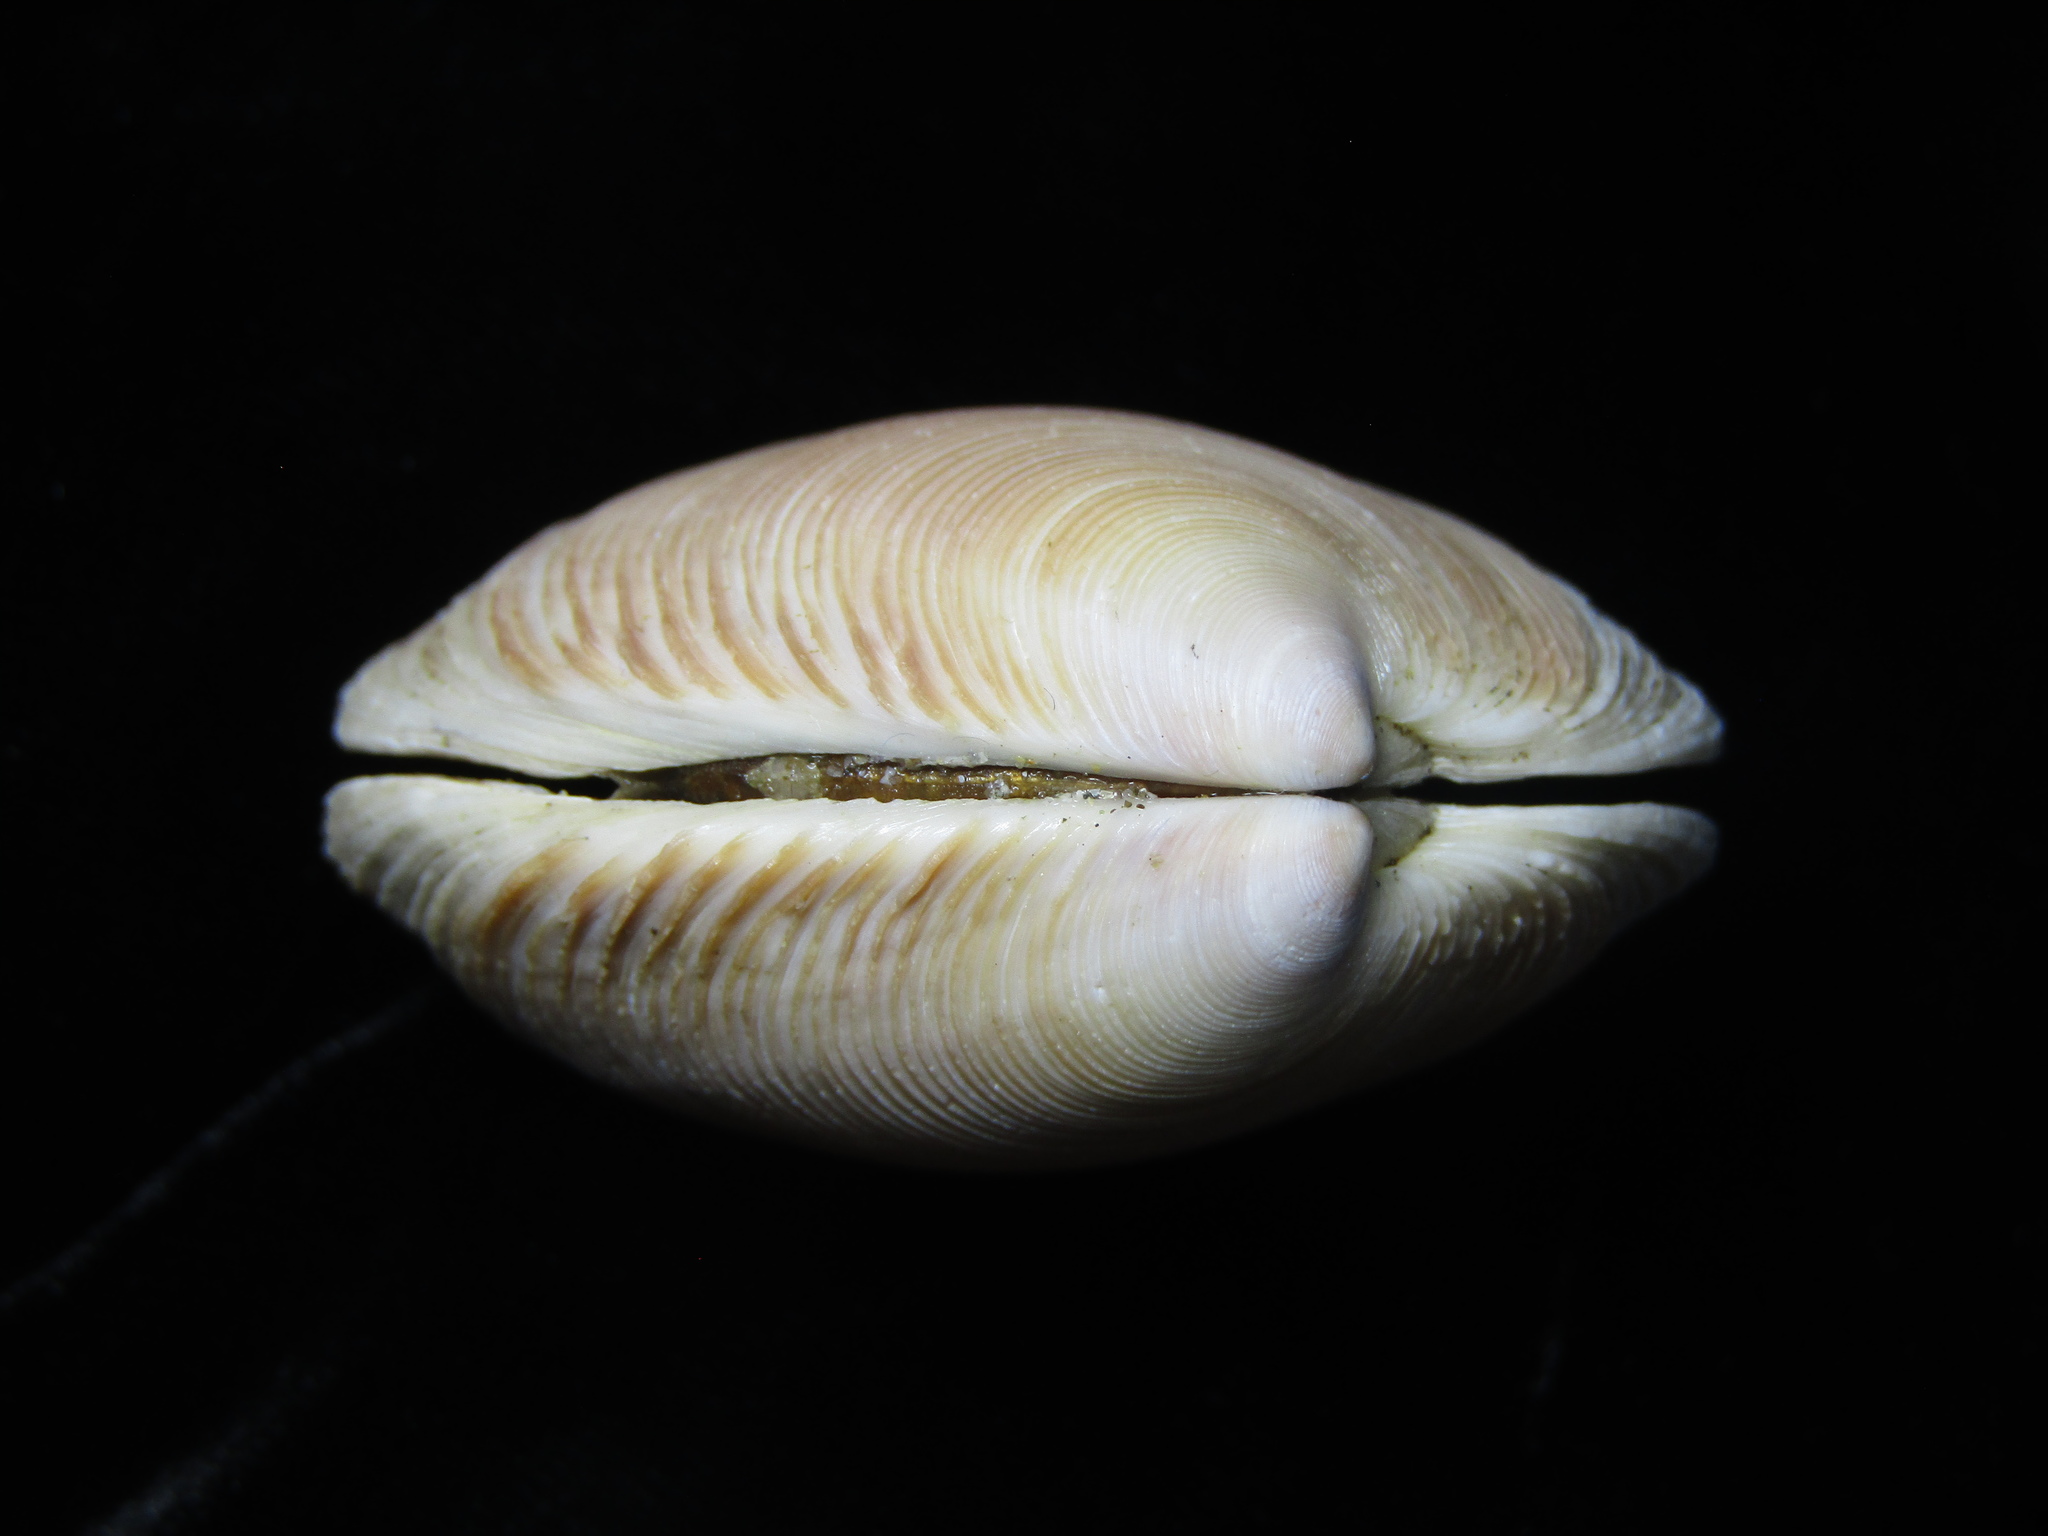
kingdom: Animalia
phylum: Mollusca
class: Bivalvia
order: Venerida
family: Veneridae
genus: Dosinia
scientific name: Dosinia anus
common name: Old-woman dosinia
